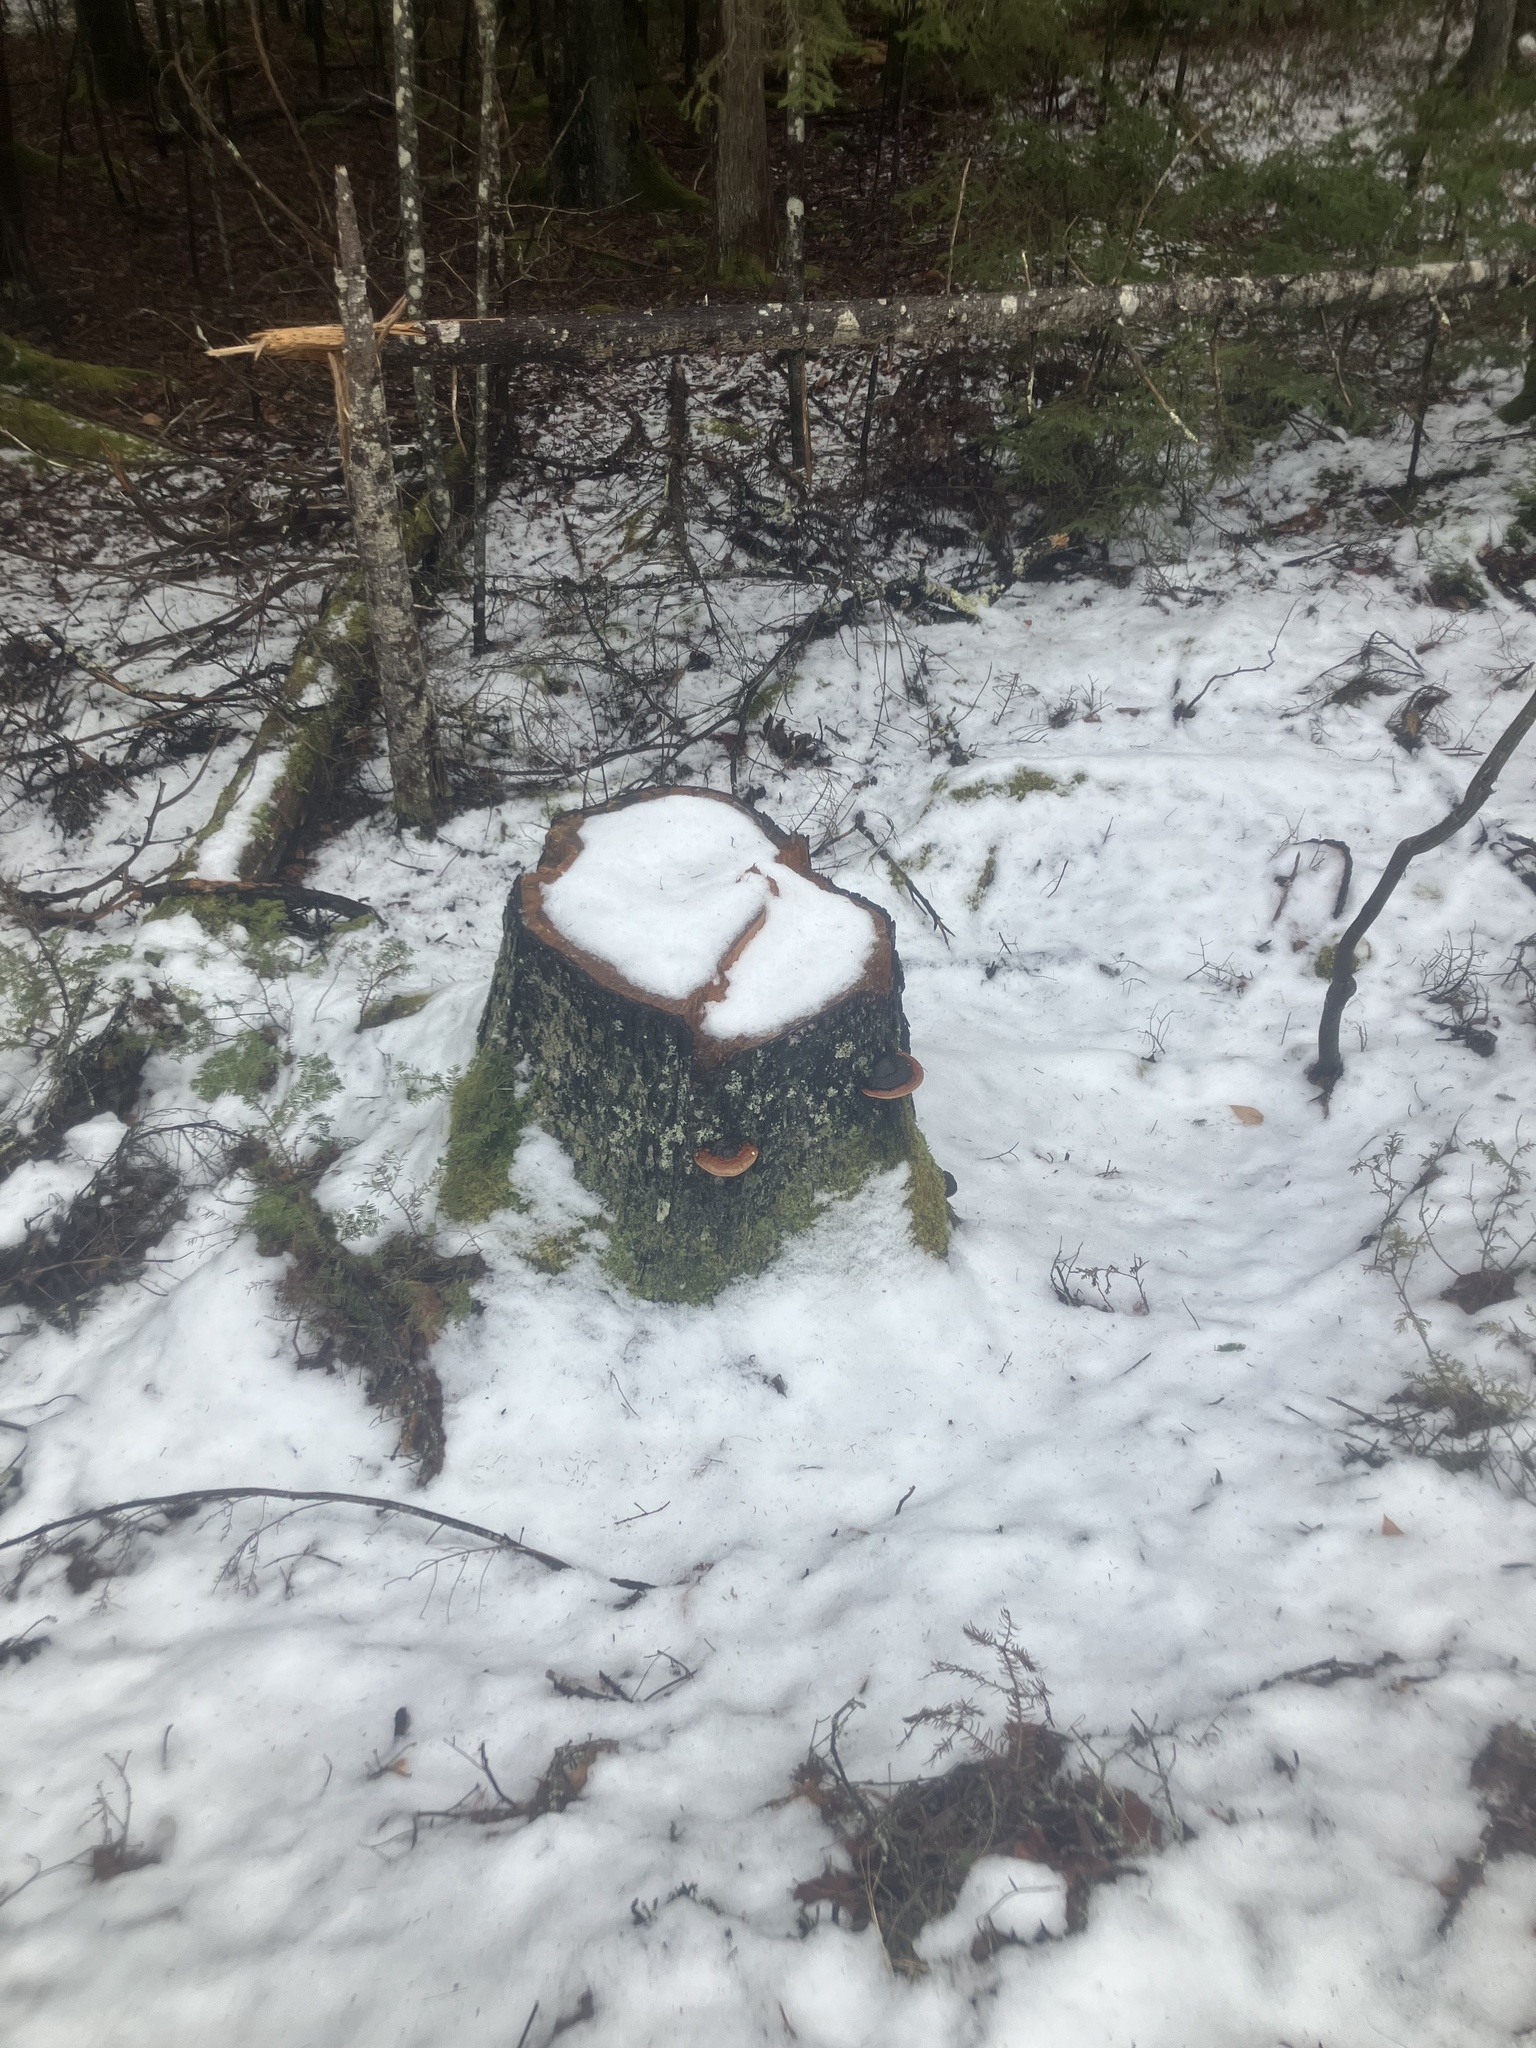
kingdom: Fungi
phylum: Basidiomycota
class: Agaricomycetes
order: Polyporales
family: Fomitopsidaceae
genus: Fomitopsis
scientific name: Fomitopsis mounceae
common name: Northern red belt
